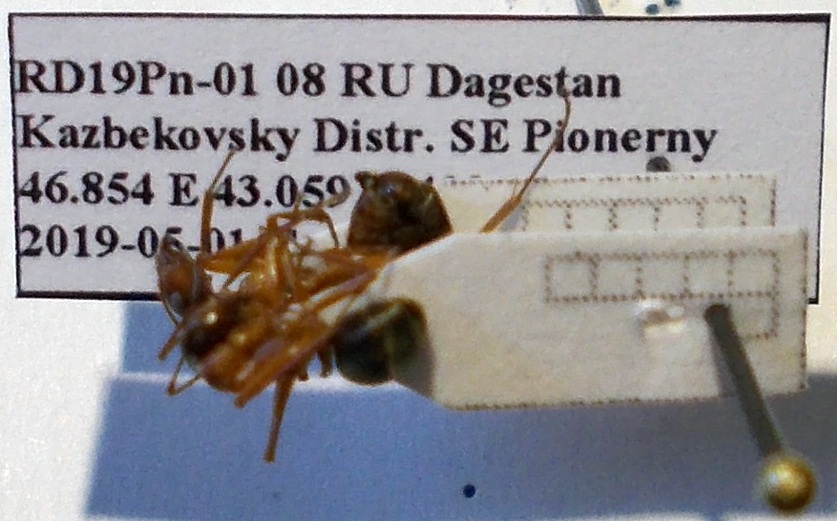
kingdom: Animalia
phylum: Arthropoda
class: Insecta
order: Hymenoptera
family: Formicidae
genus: Formica
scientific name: Formica cunicularia
